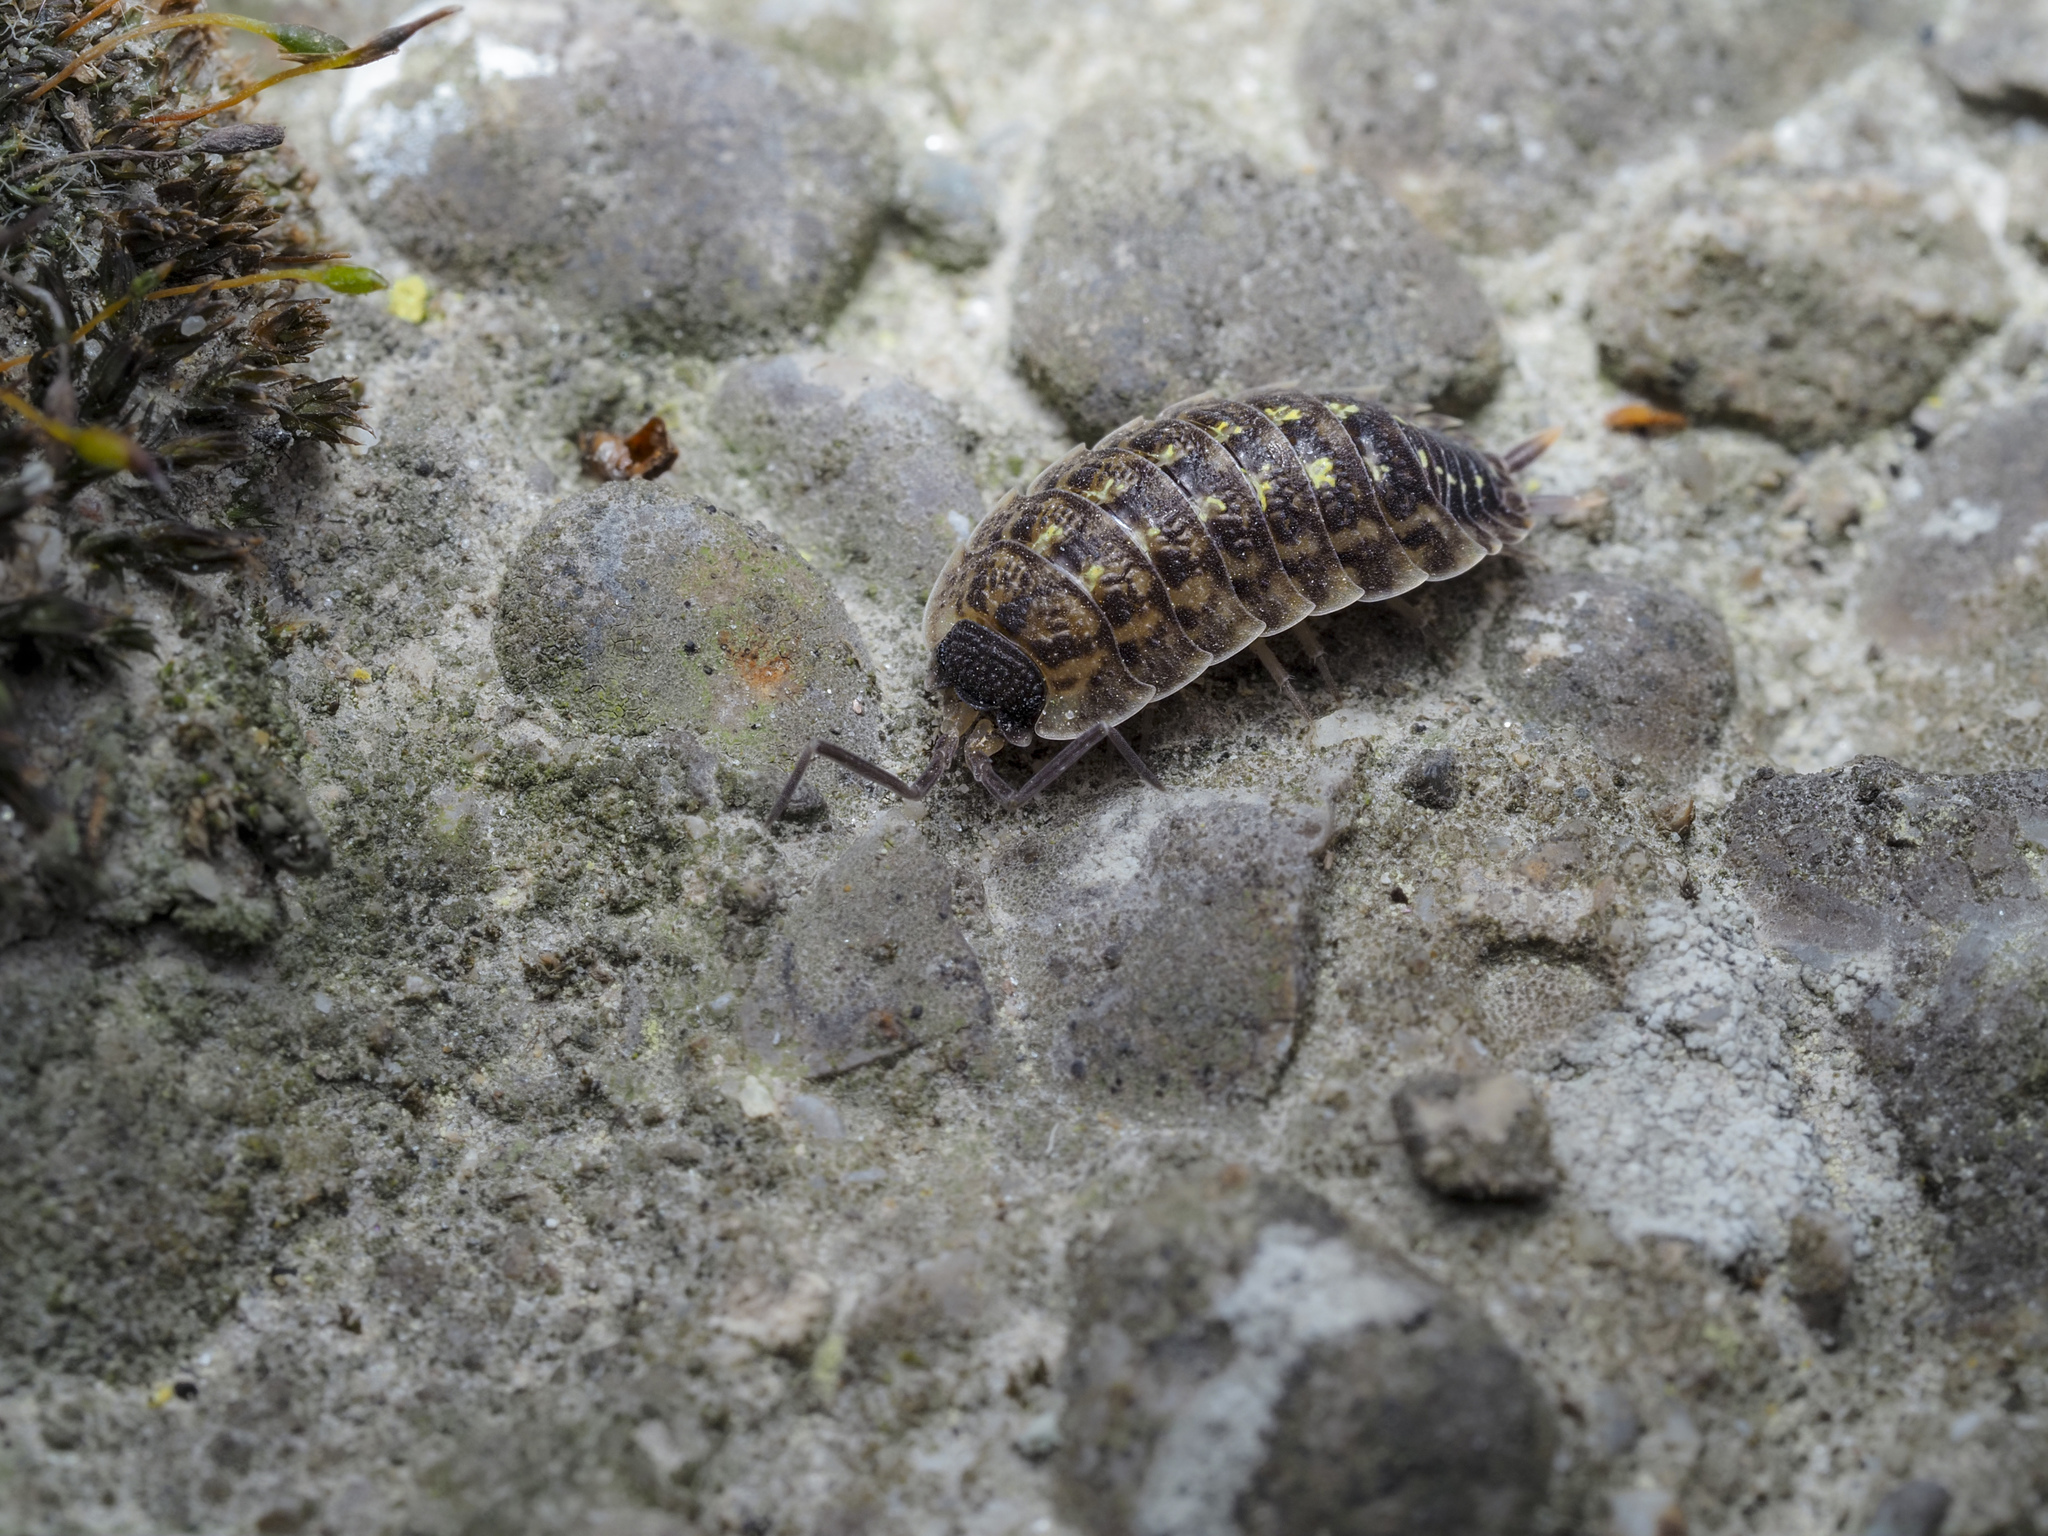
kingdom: Animalia
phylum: Arthropoda
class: Malacostraca
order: Isopoda
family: Porcellionidae
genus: Porcellio
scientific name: Porcellio spinicornis
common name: Painted woodlouse
